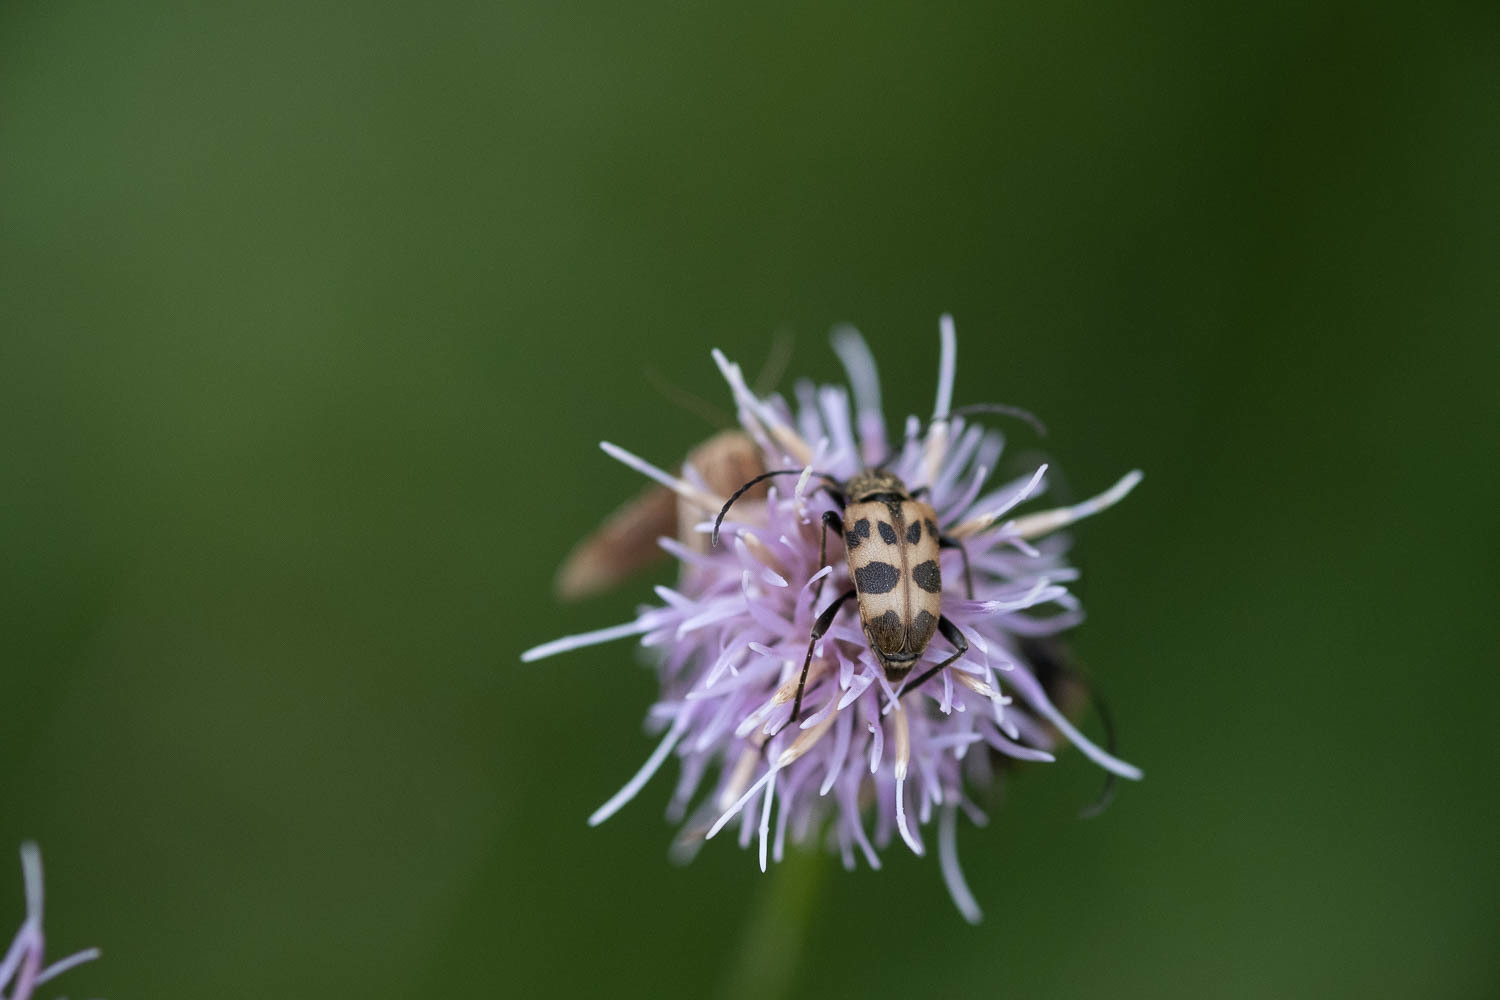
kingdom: Animalia
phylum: Arthropoda
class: Insecta
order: Coleoptera
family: Cerambycidae
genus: Pachytodes
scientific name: Pachytodes cerambyciformis
